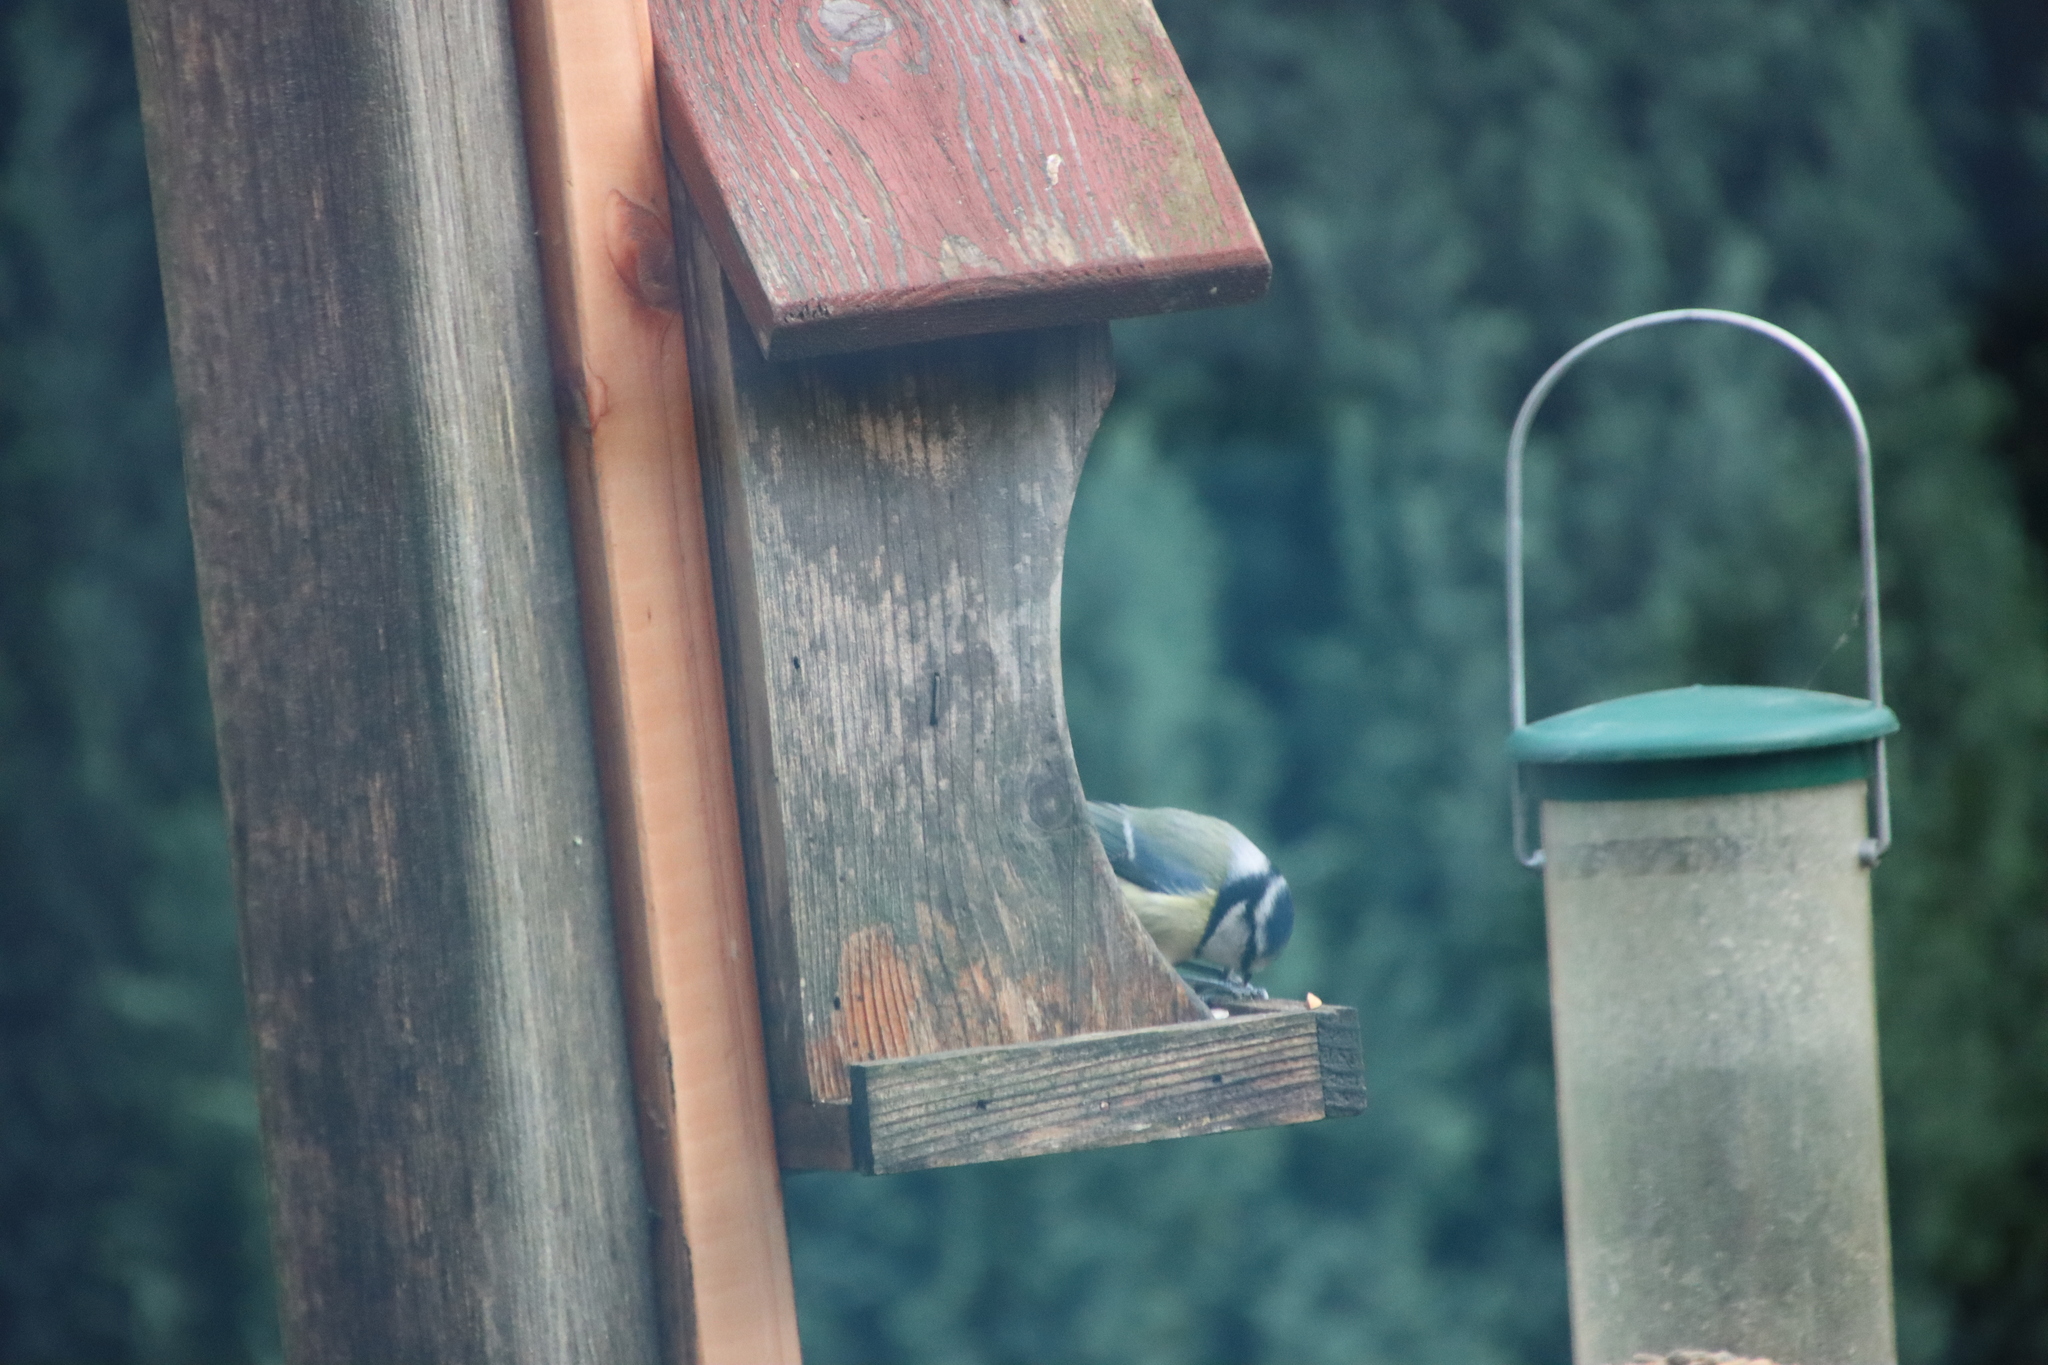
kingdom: Animalia
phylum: Chordata
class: Aves
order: Passeriformes
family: Paridae
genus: Cyanistes
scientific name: Cyanistes caeruleus
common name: Eurasian blue tit
